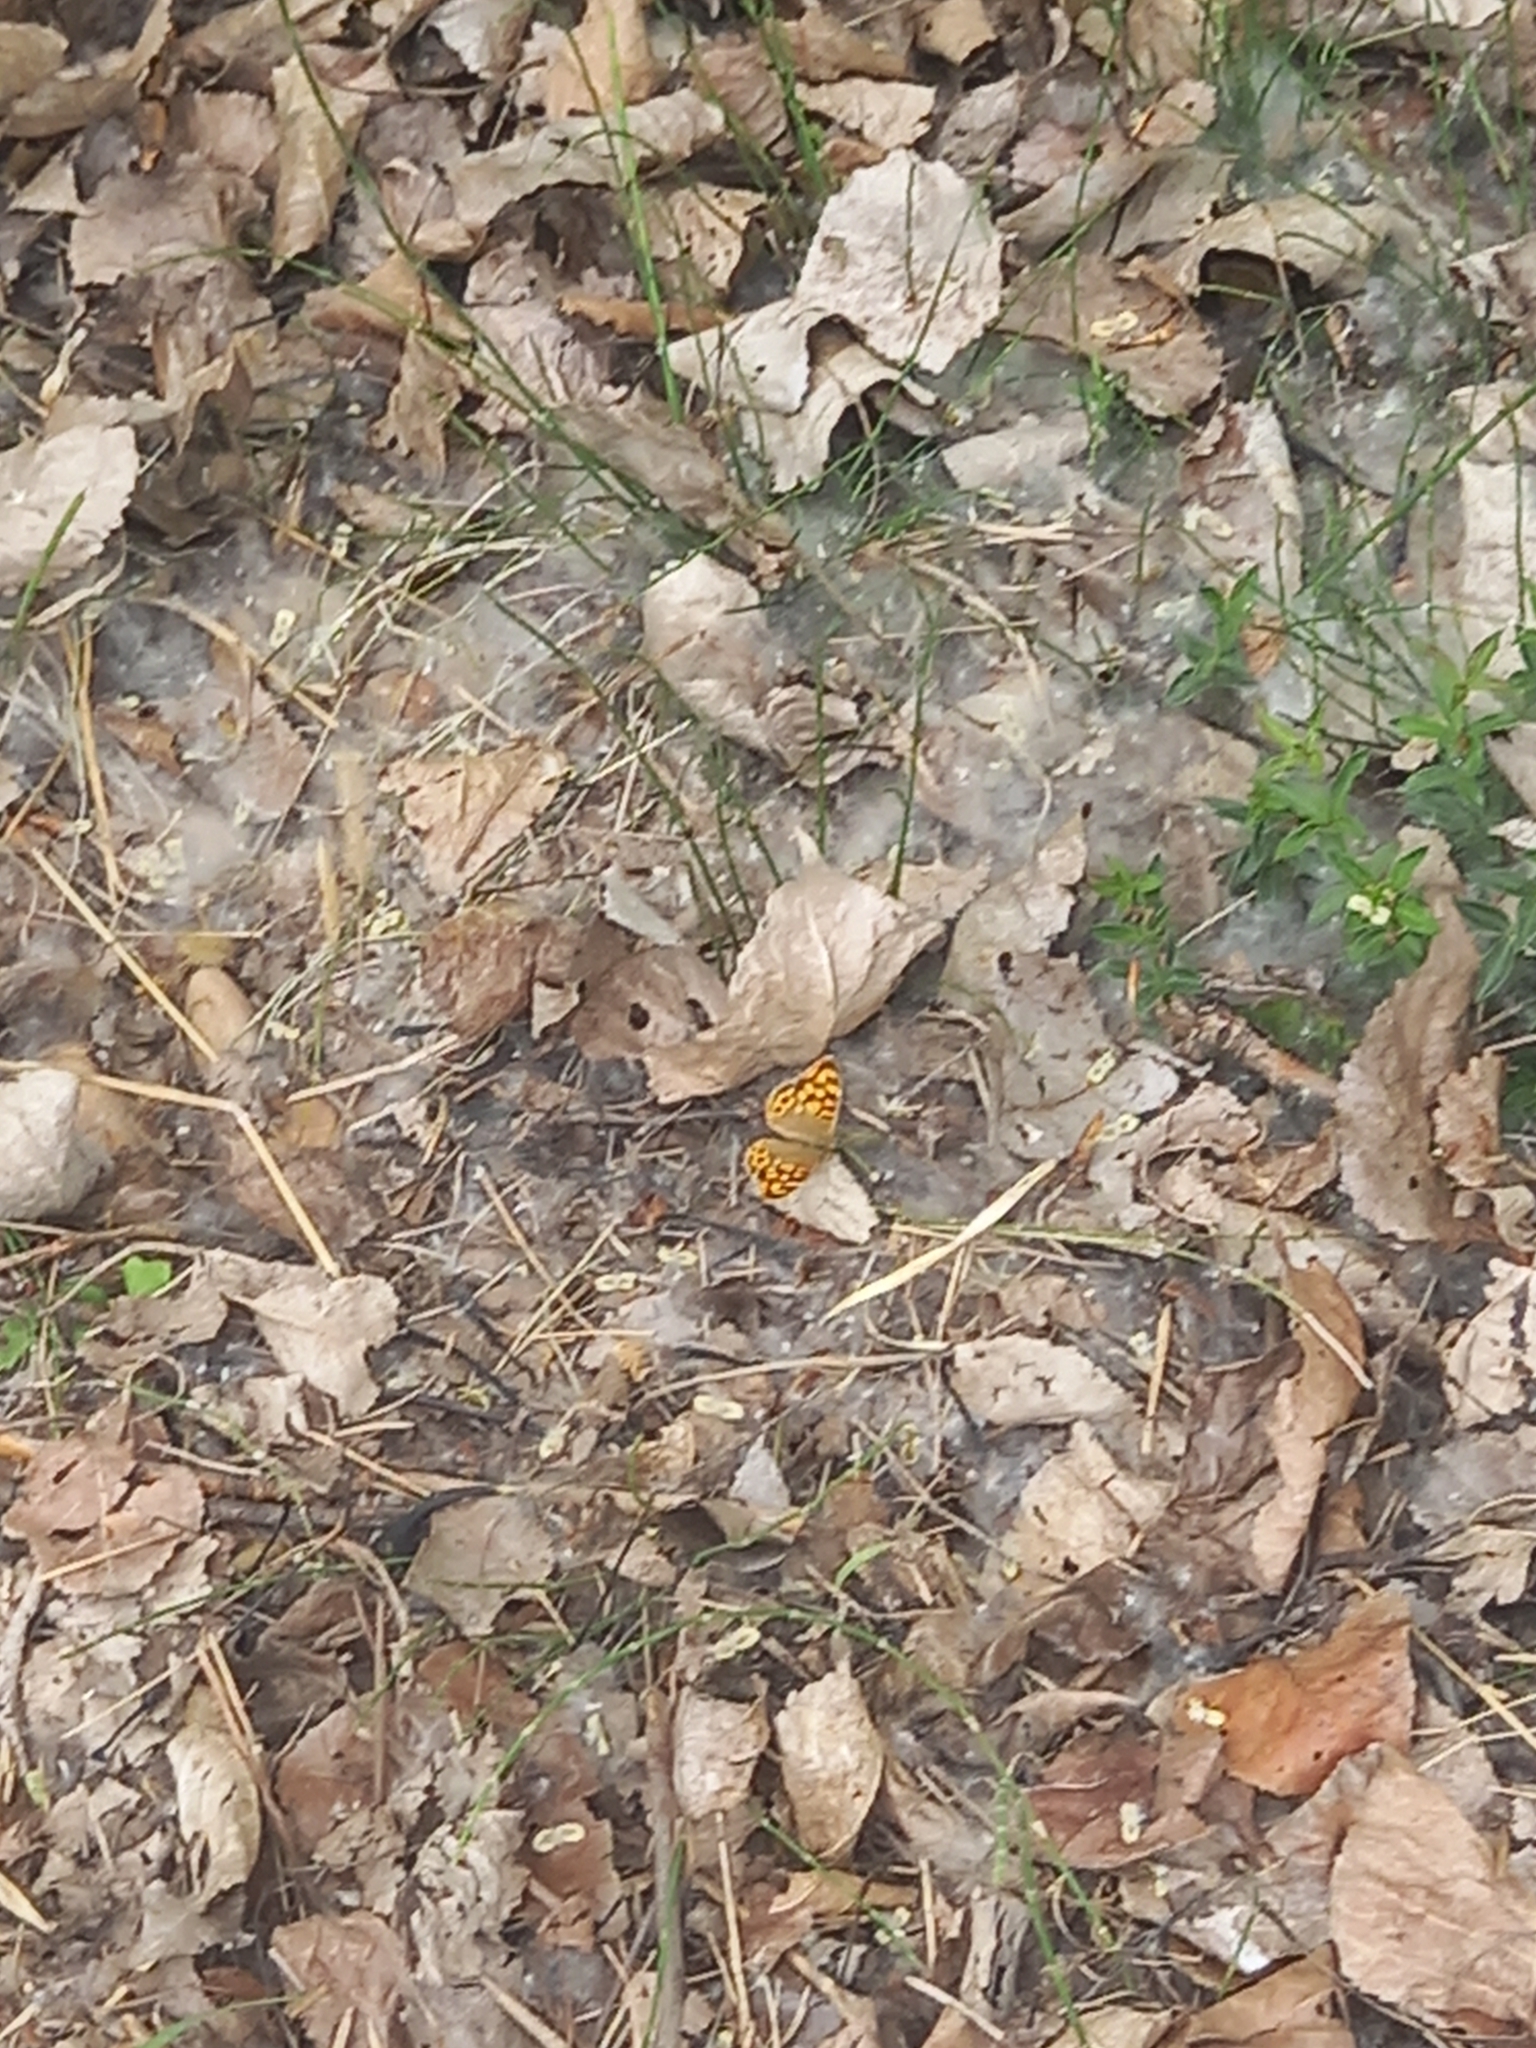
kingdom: Animalia
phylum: Arthropoda
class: Insecta
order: Lepidoptera
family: Nymphalidae
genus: Pararge
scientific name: Pararge aegeria
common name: Speckled wood
